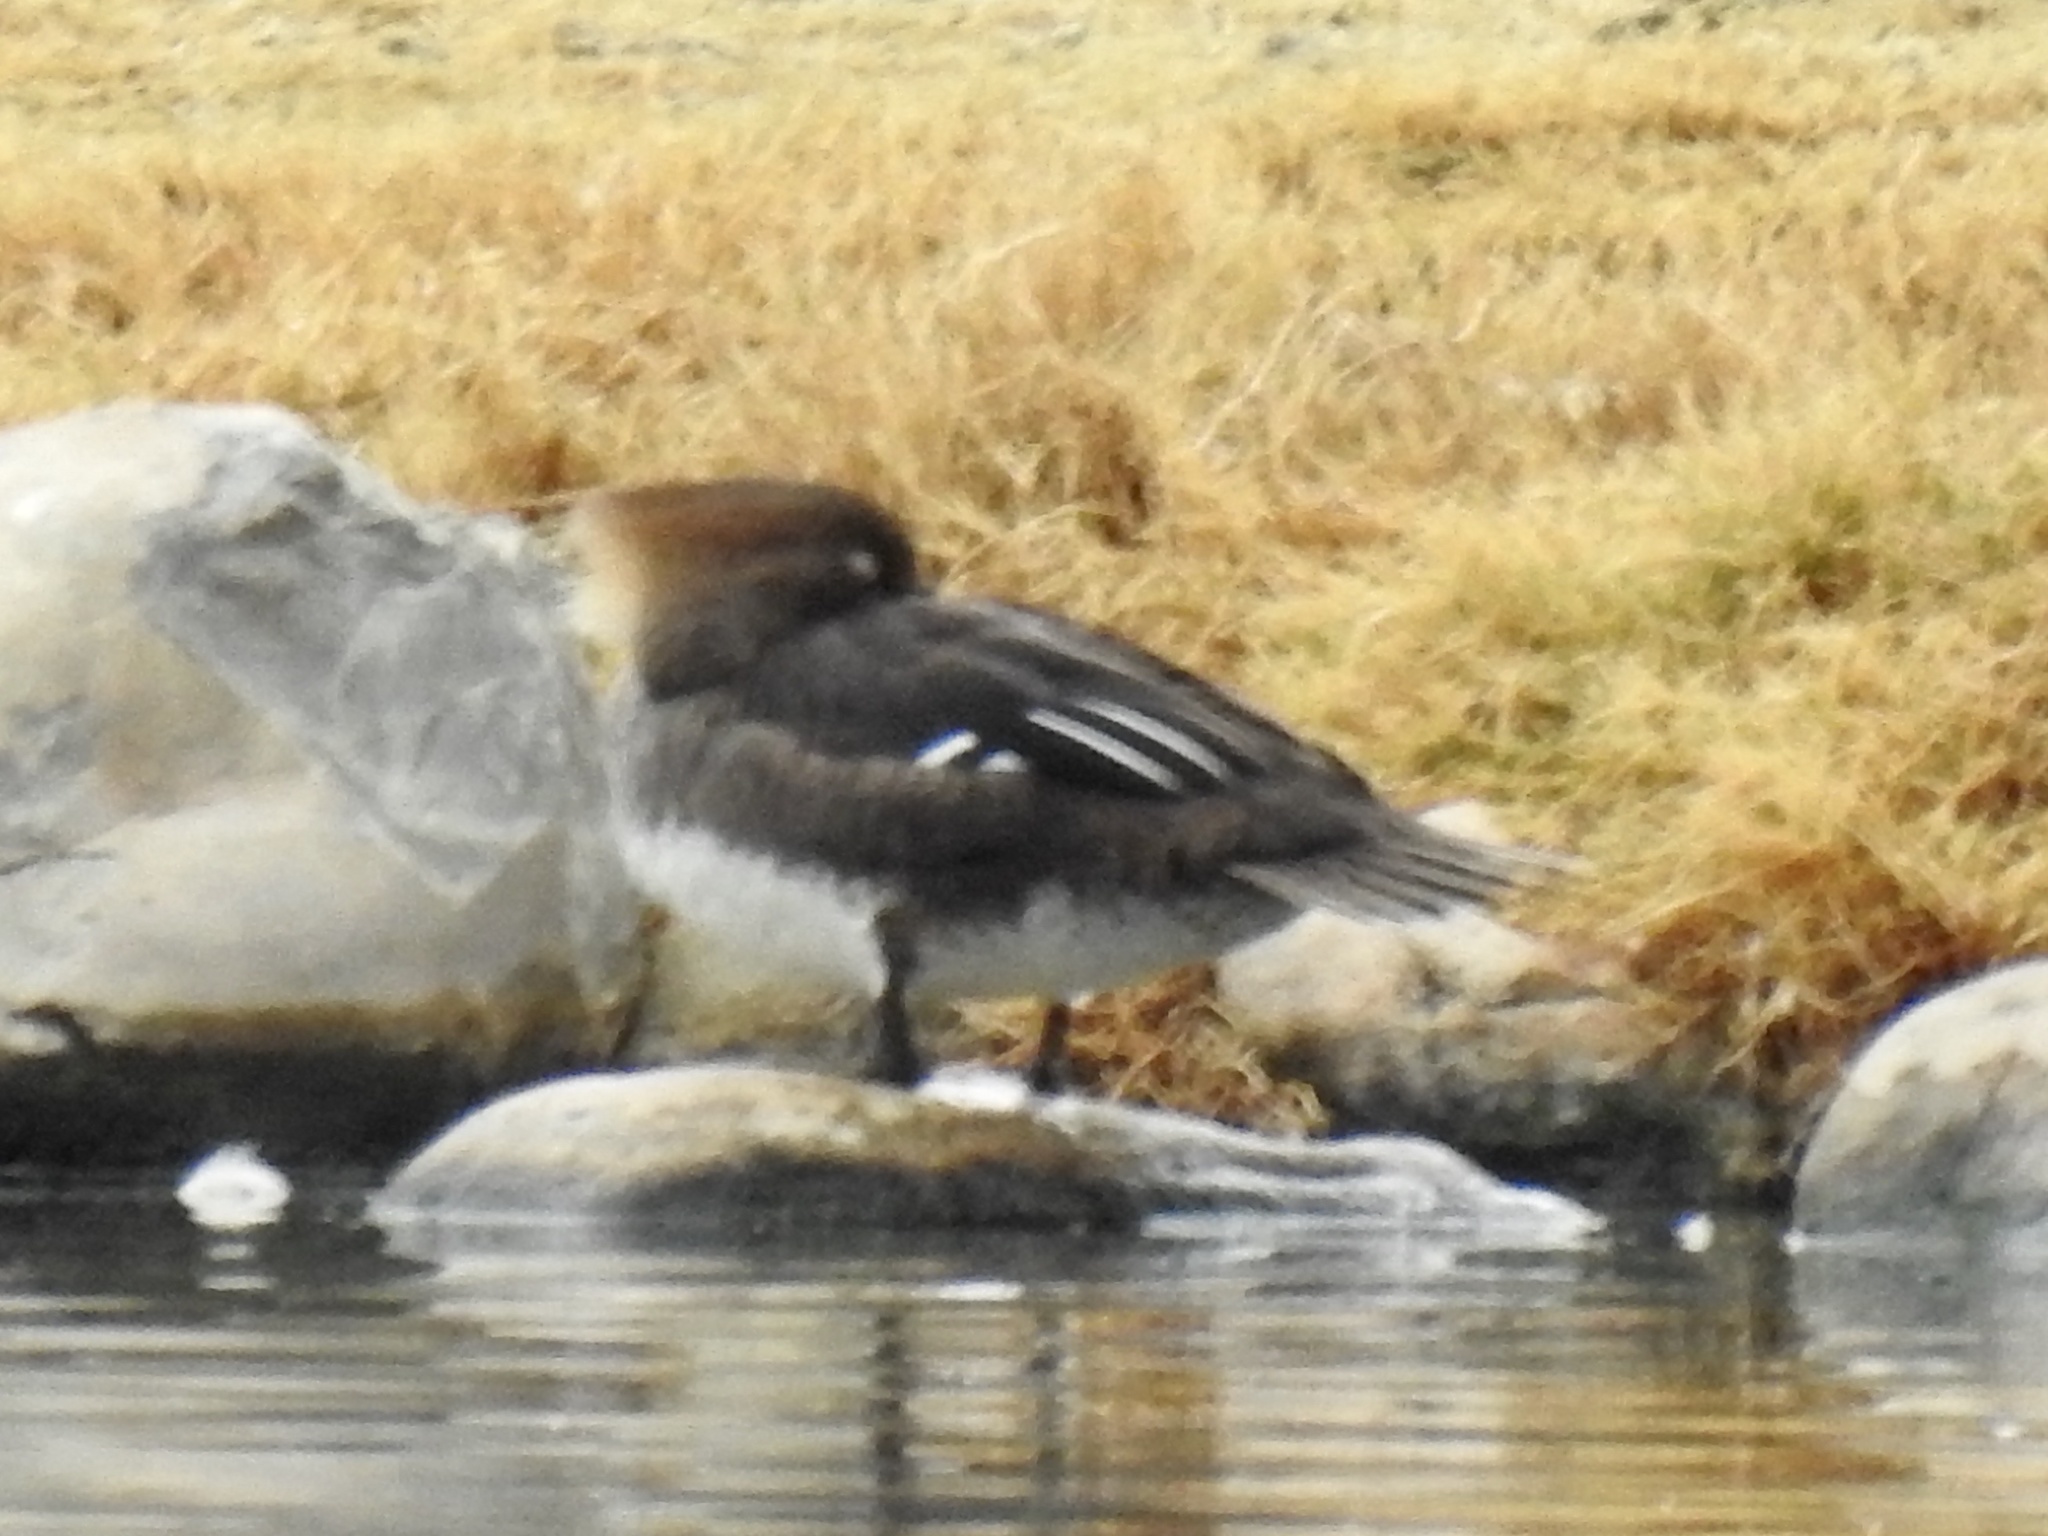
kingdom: Animalia
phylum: Chordata
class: Aves
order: Anseriformes
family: Anatidae
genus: Lophodytes
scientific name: Lophodytes cucullatus
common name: Hooded merganser
